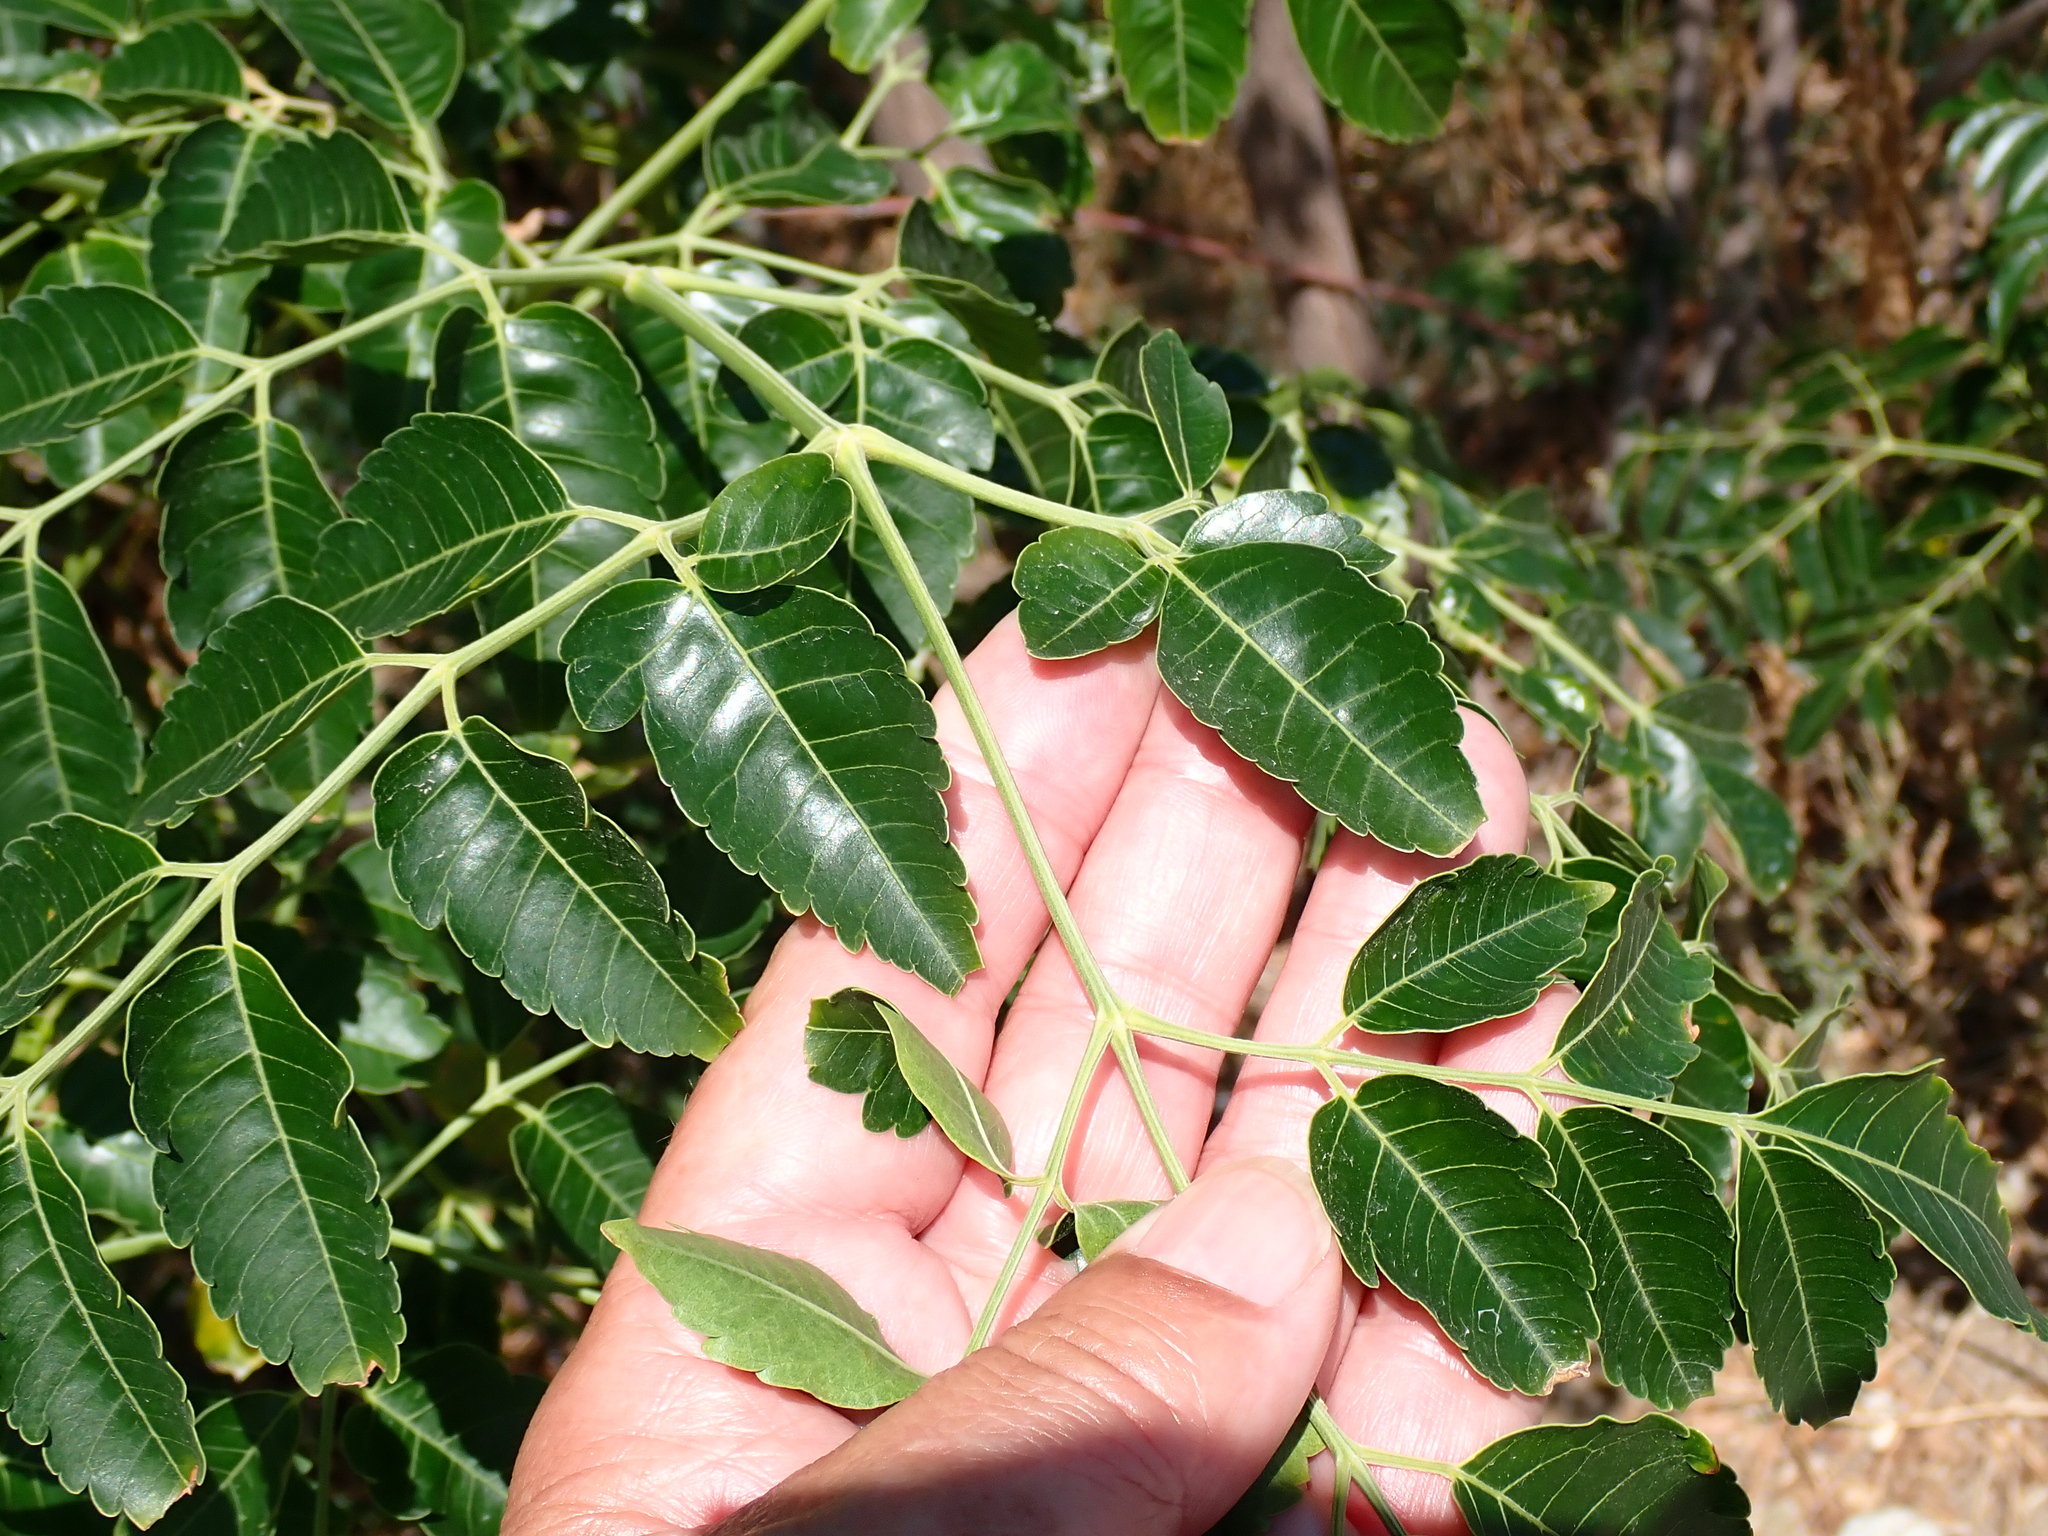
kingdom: Plantae
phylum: Tracheophyta
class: Magnoliopsida
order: Sapindales
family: Meliaceae
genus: Melia
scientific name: Melia azedarach
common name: Chinaberrytree
